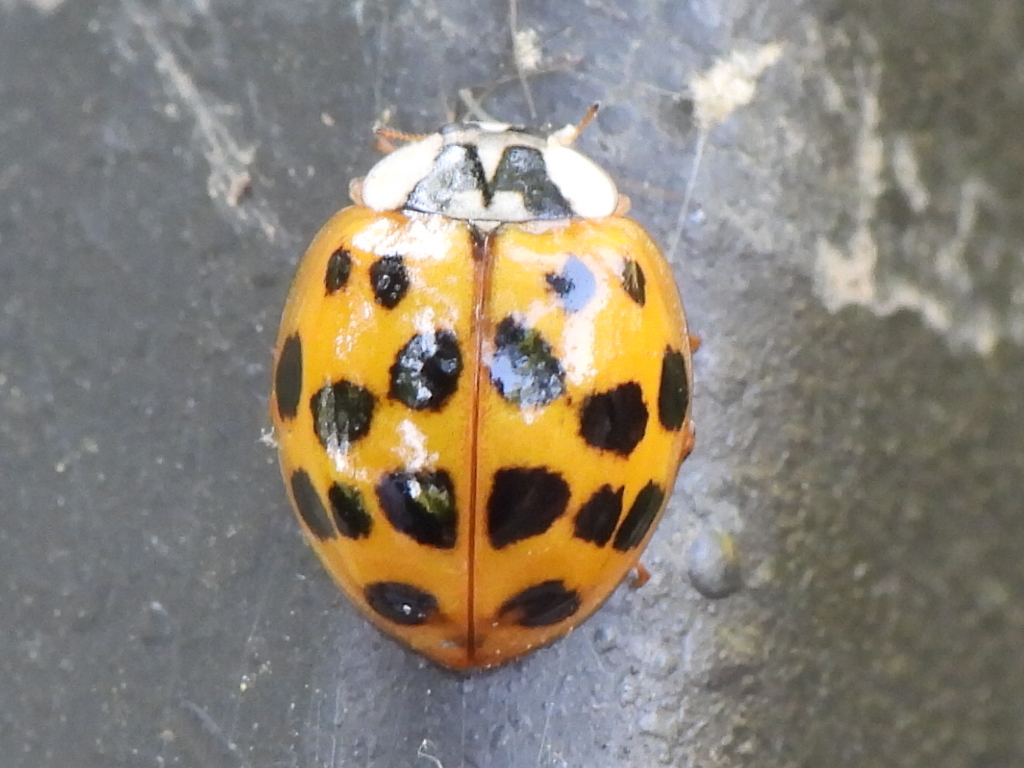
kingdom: Animalia
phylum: Arthropoda
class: Insecta
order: Coleoptera
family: Coccinellidae
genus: Harmonia
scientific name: Harmonia axyridis
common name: Harlequin ladybird
